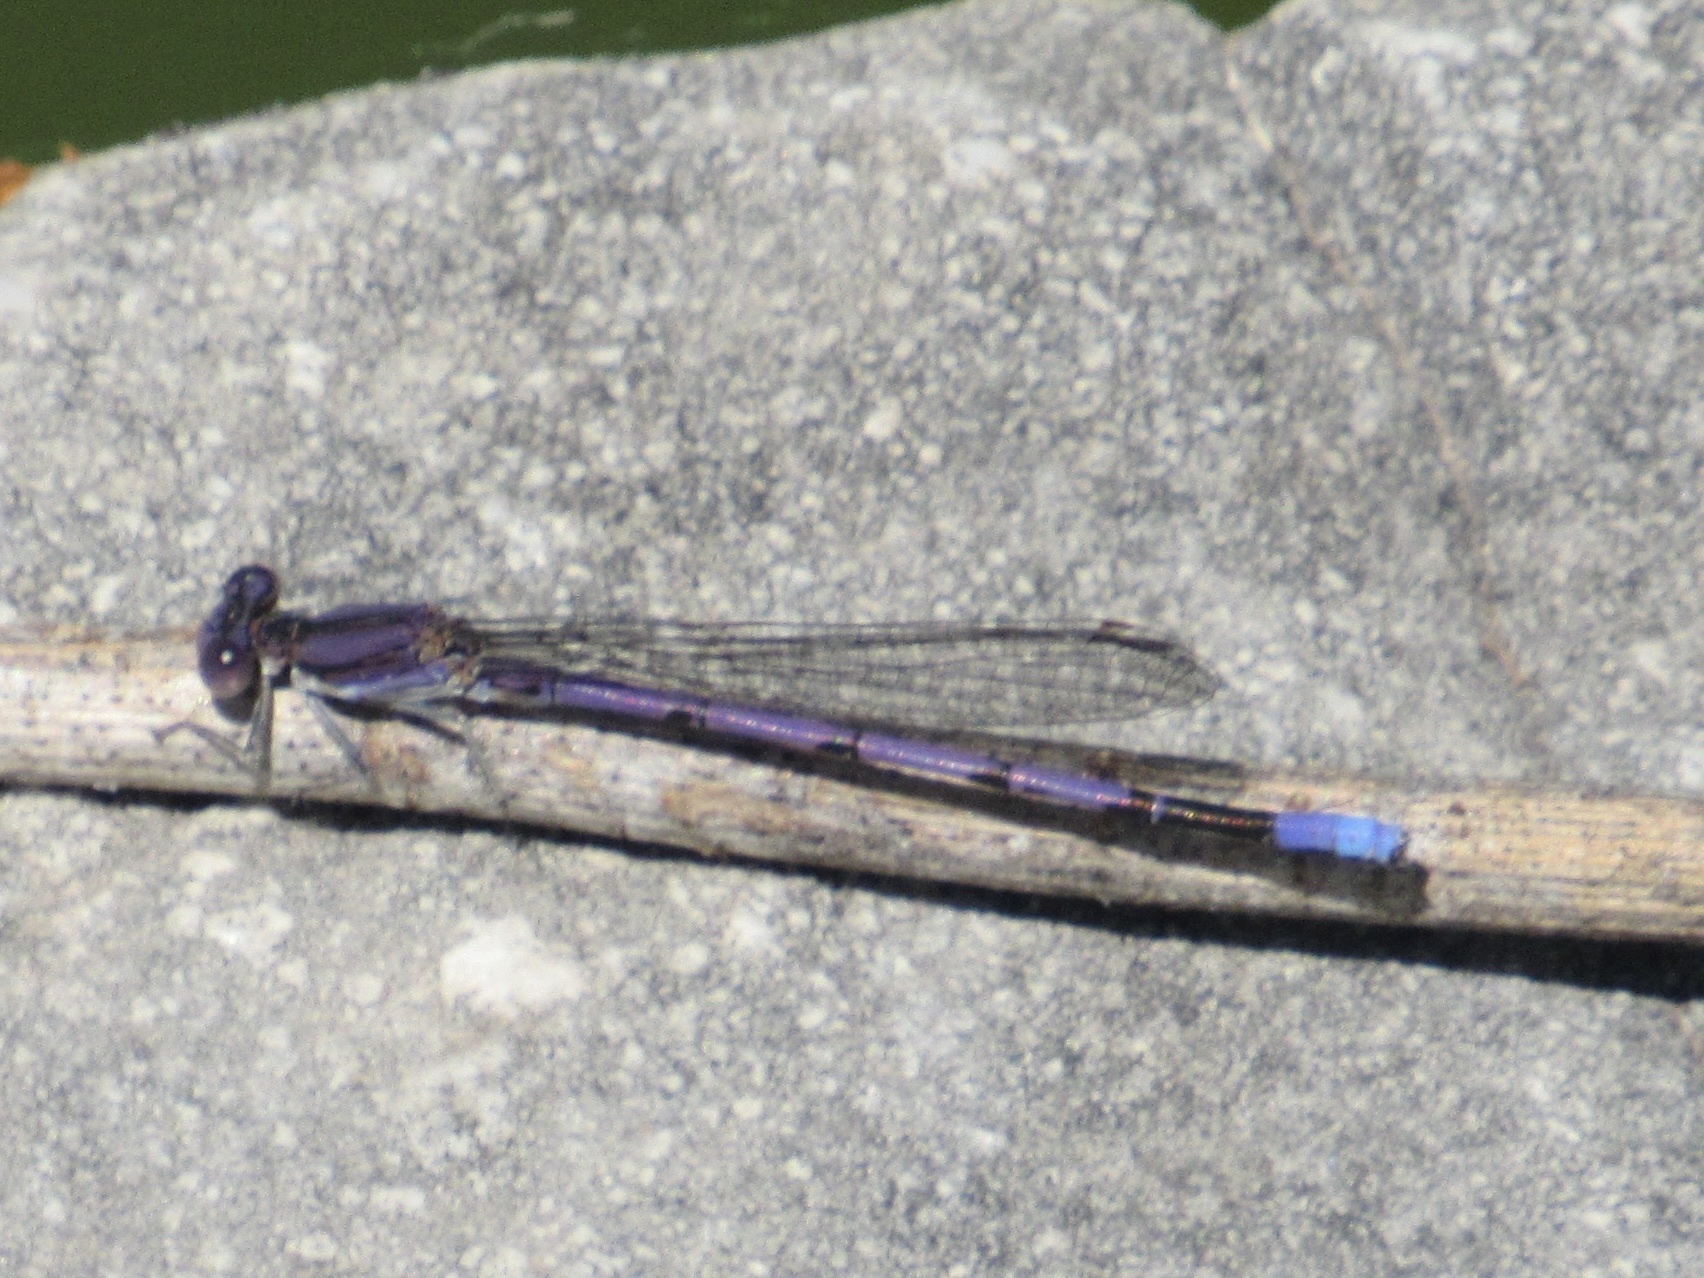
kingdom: Animalia
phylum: Arthropoda
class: Insecta
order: Odonata
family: Coenagrionidae
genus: Argia
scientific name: Argia fumipennis
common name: Variable dancer
